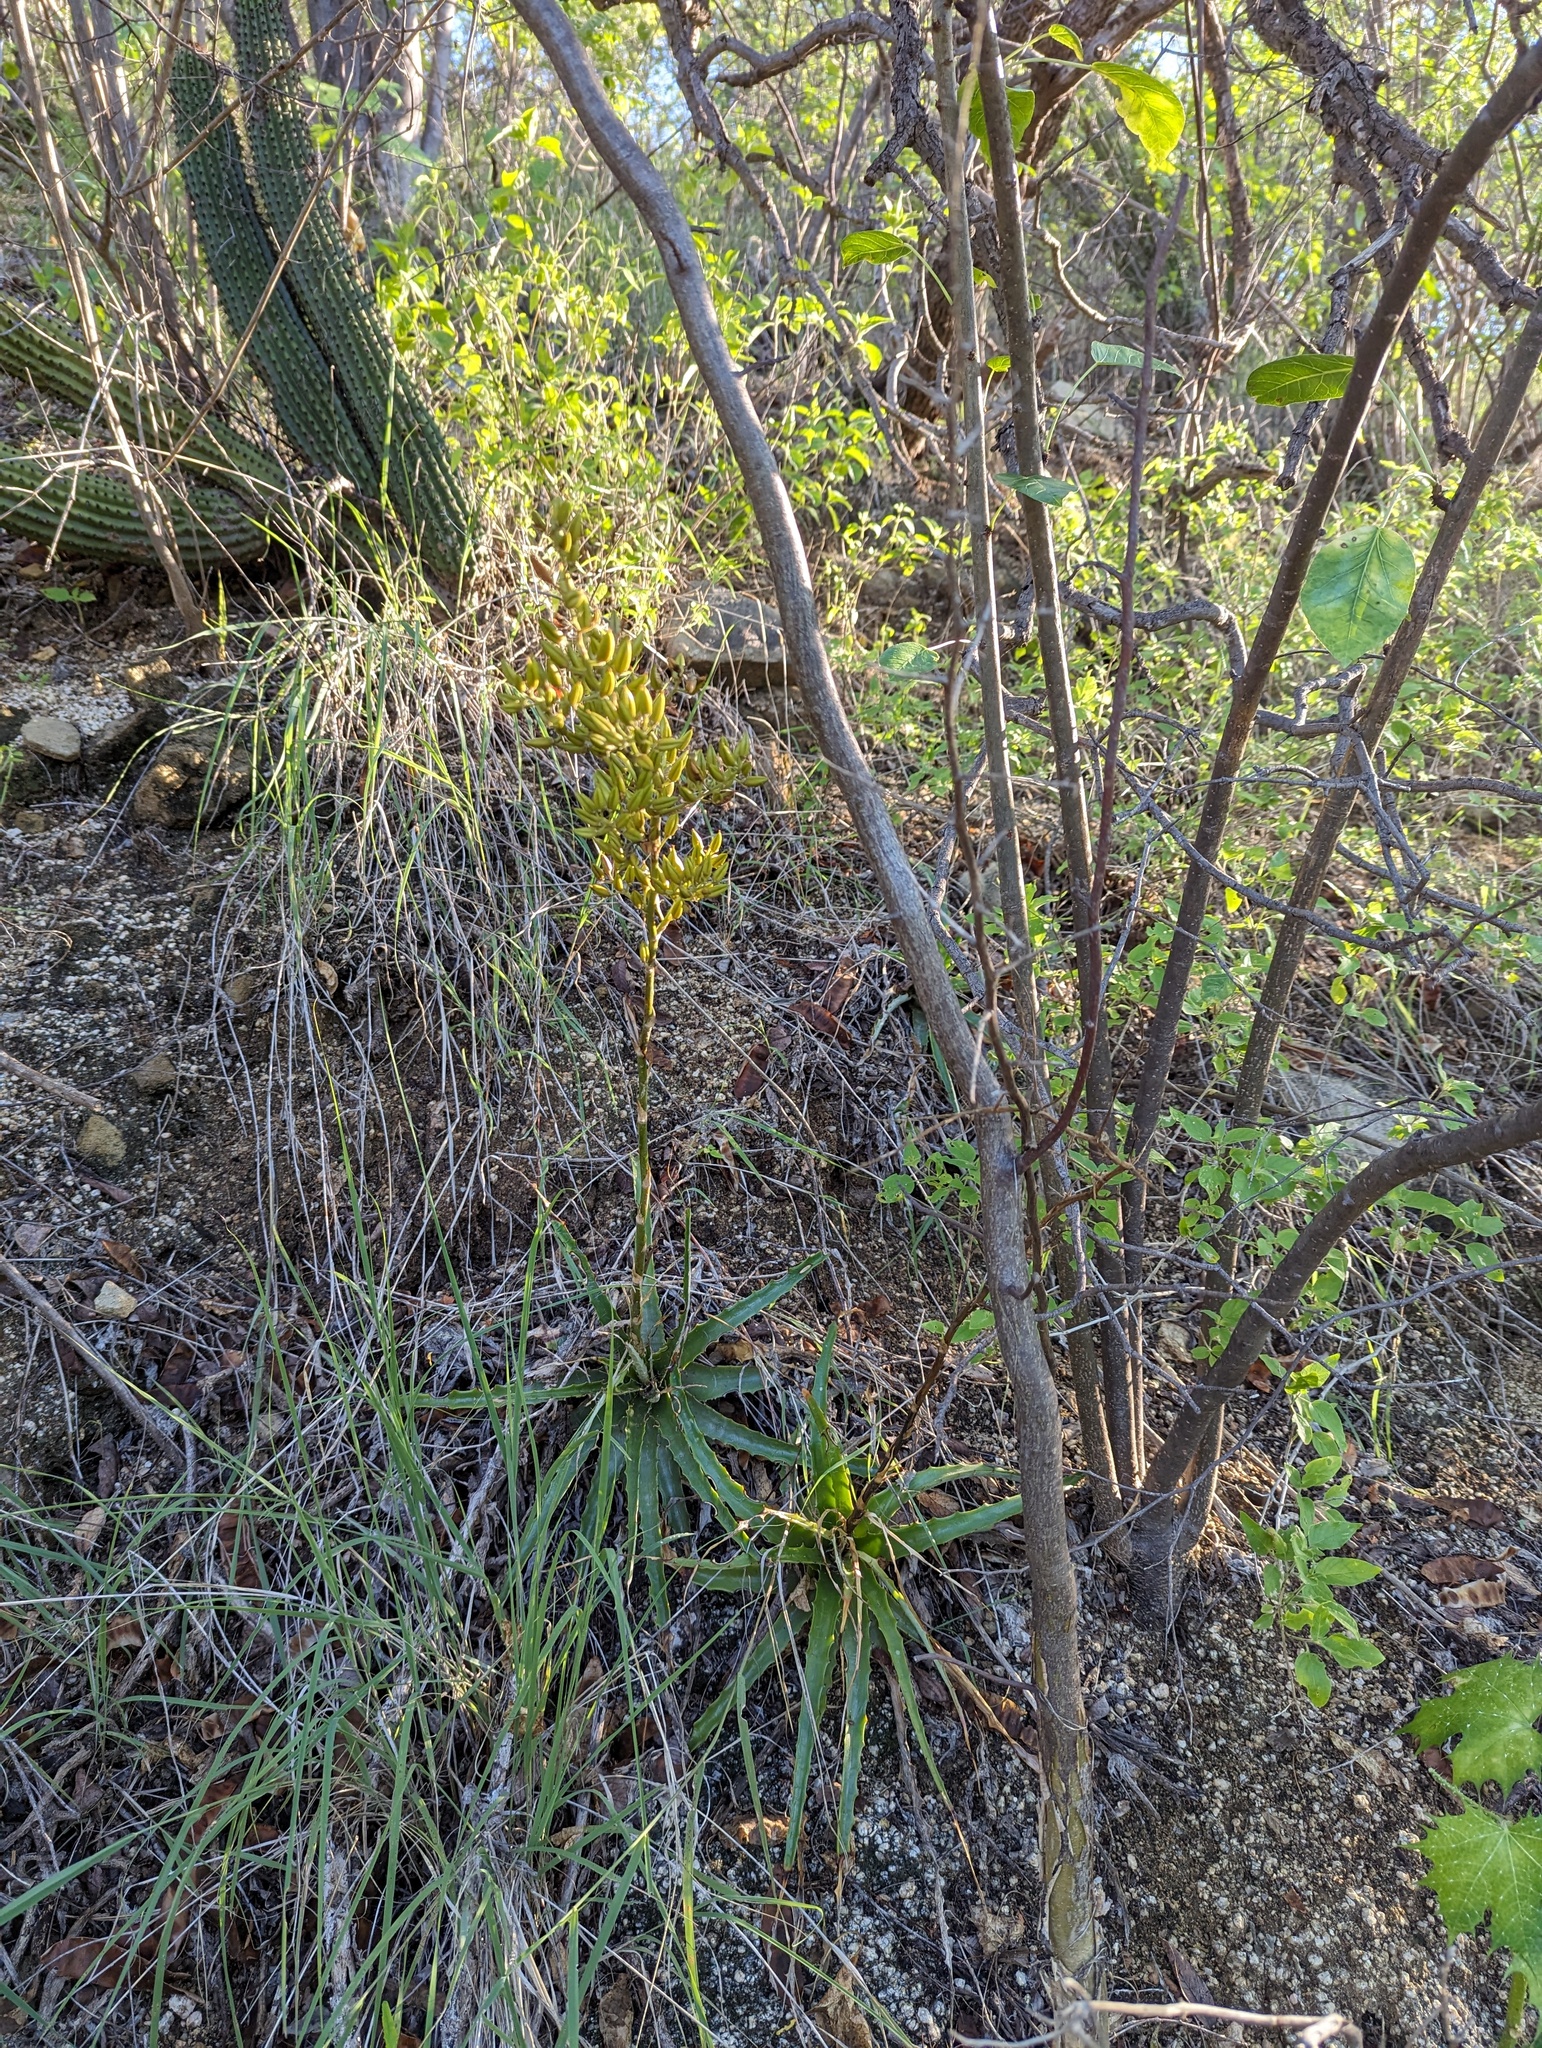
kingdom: Plantae
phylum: Tracheophyta
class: Liliopsida
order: Poales
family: Bromeliaceae
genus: Hechtia
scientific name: Hechtia montana
